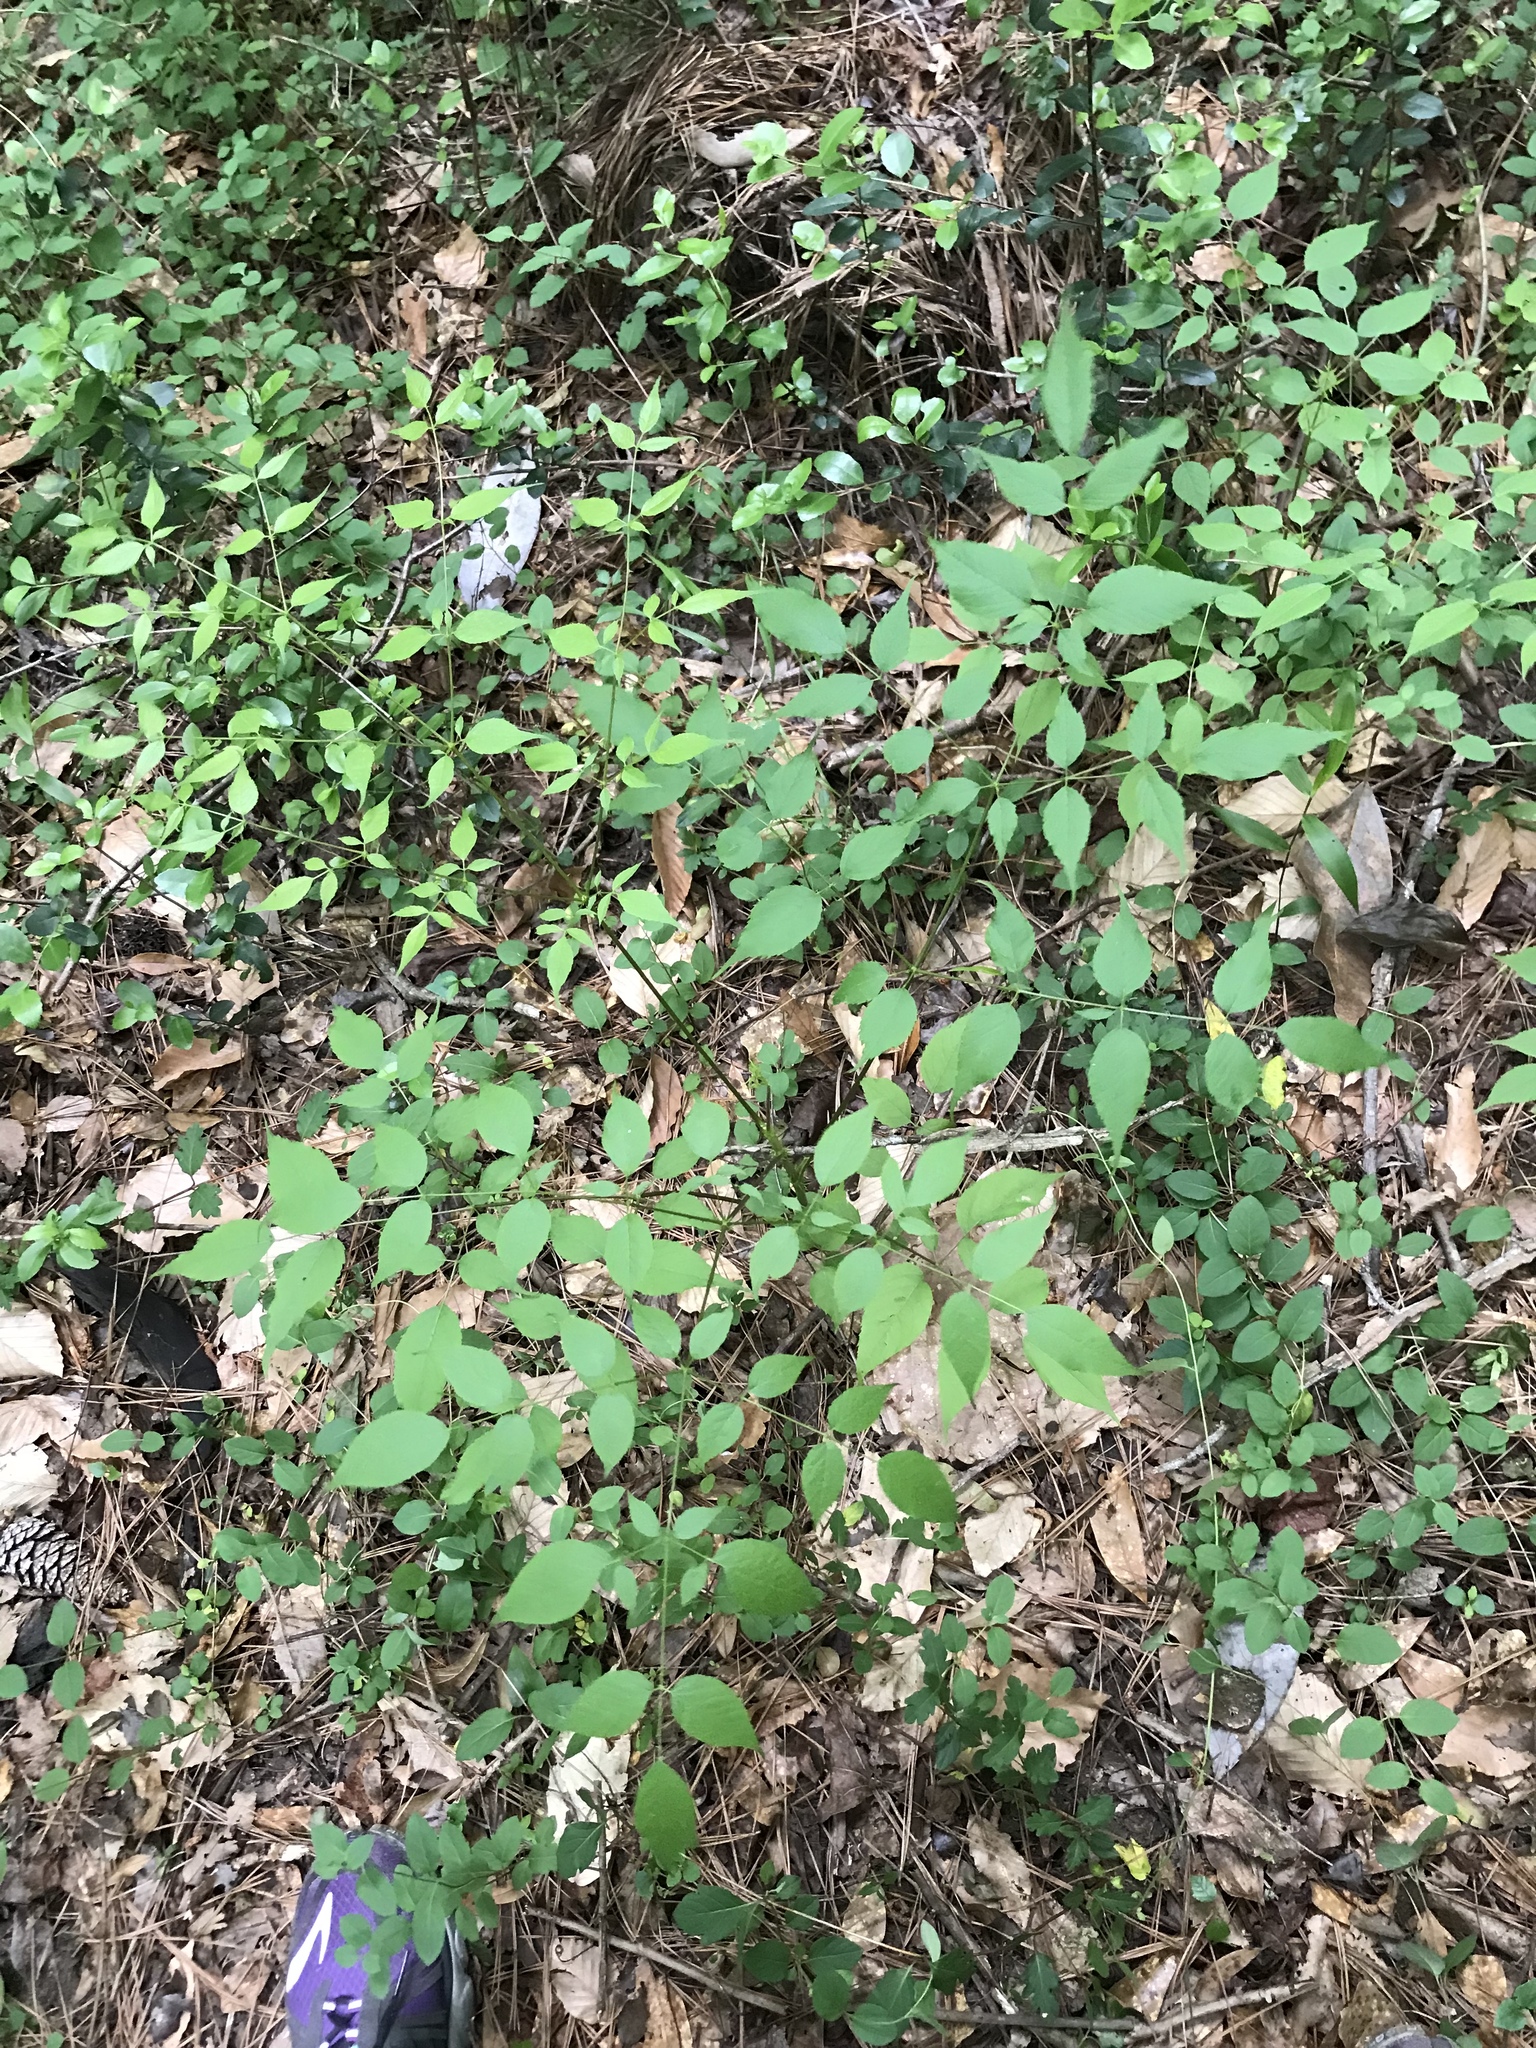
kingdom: Plantae
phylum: Tracheophyta
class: Magnoliopsida
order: Apiales
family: Araliaceae
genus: Aralia
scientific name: Aralia spinosa
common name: Hercules'-club
